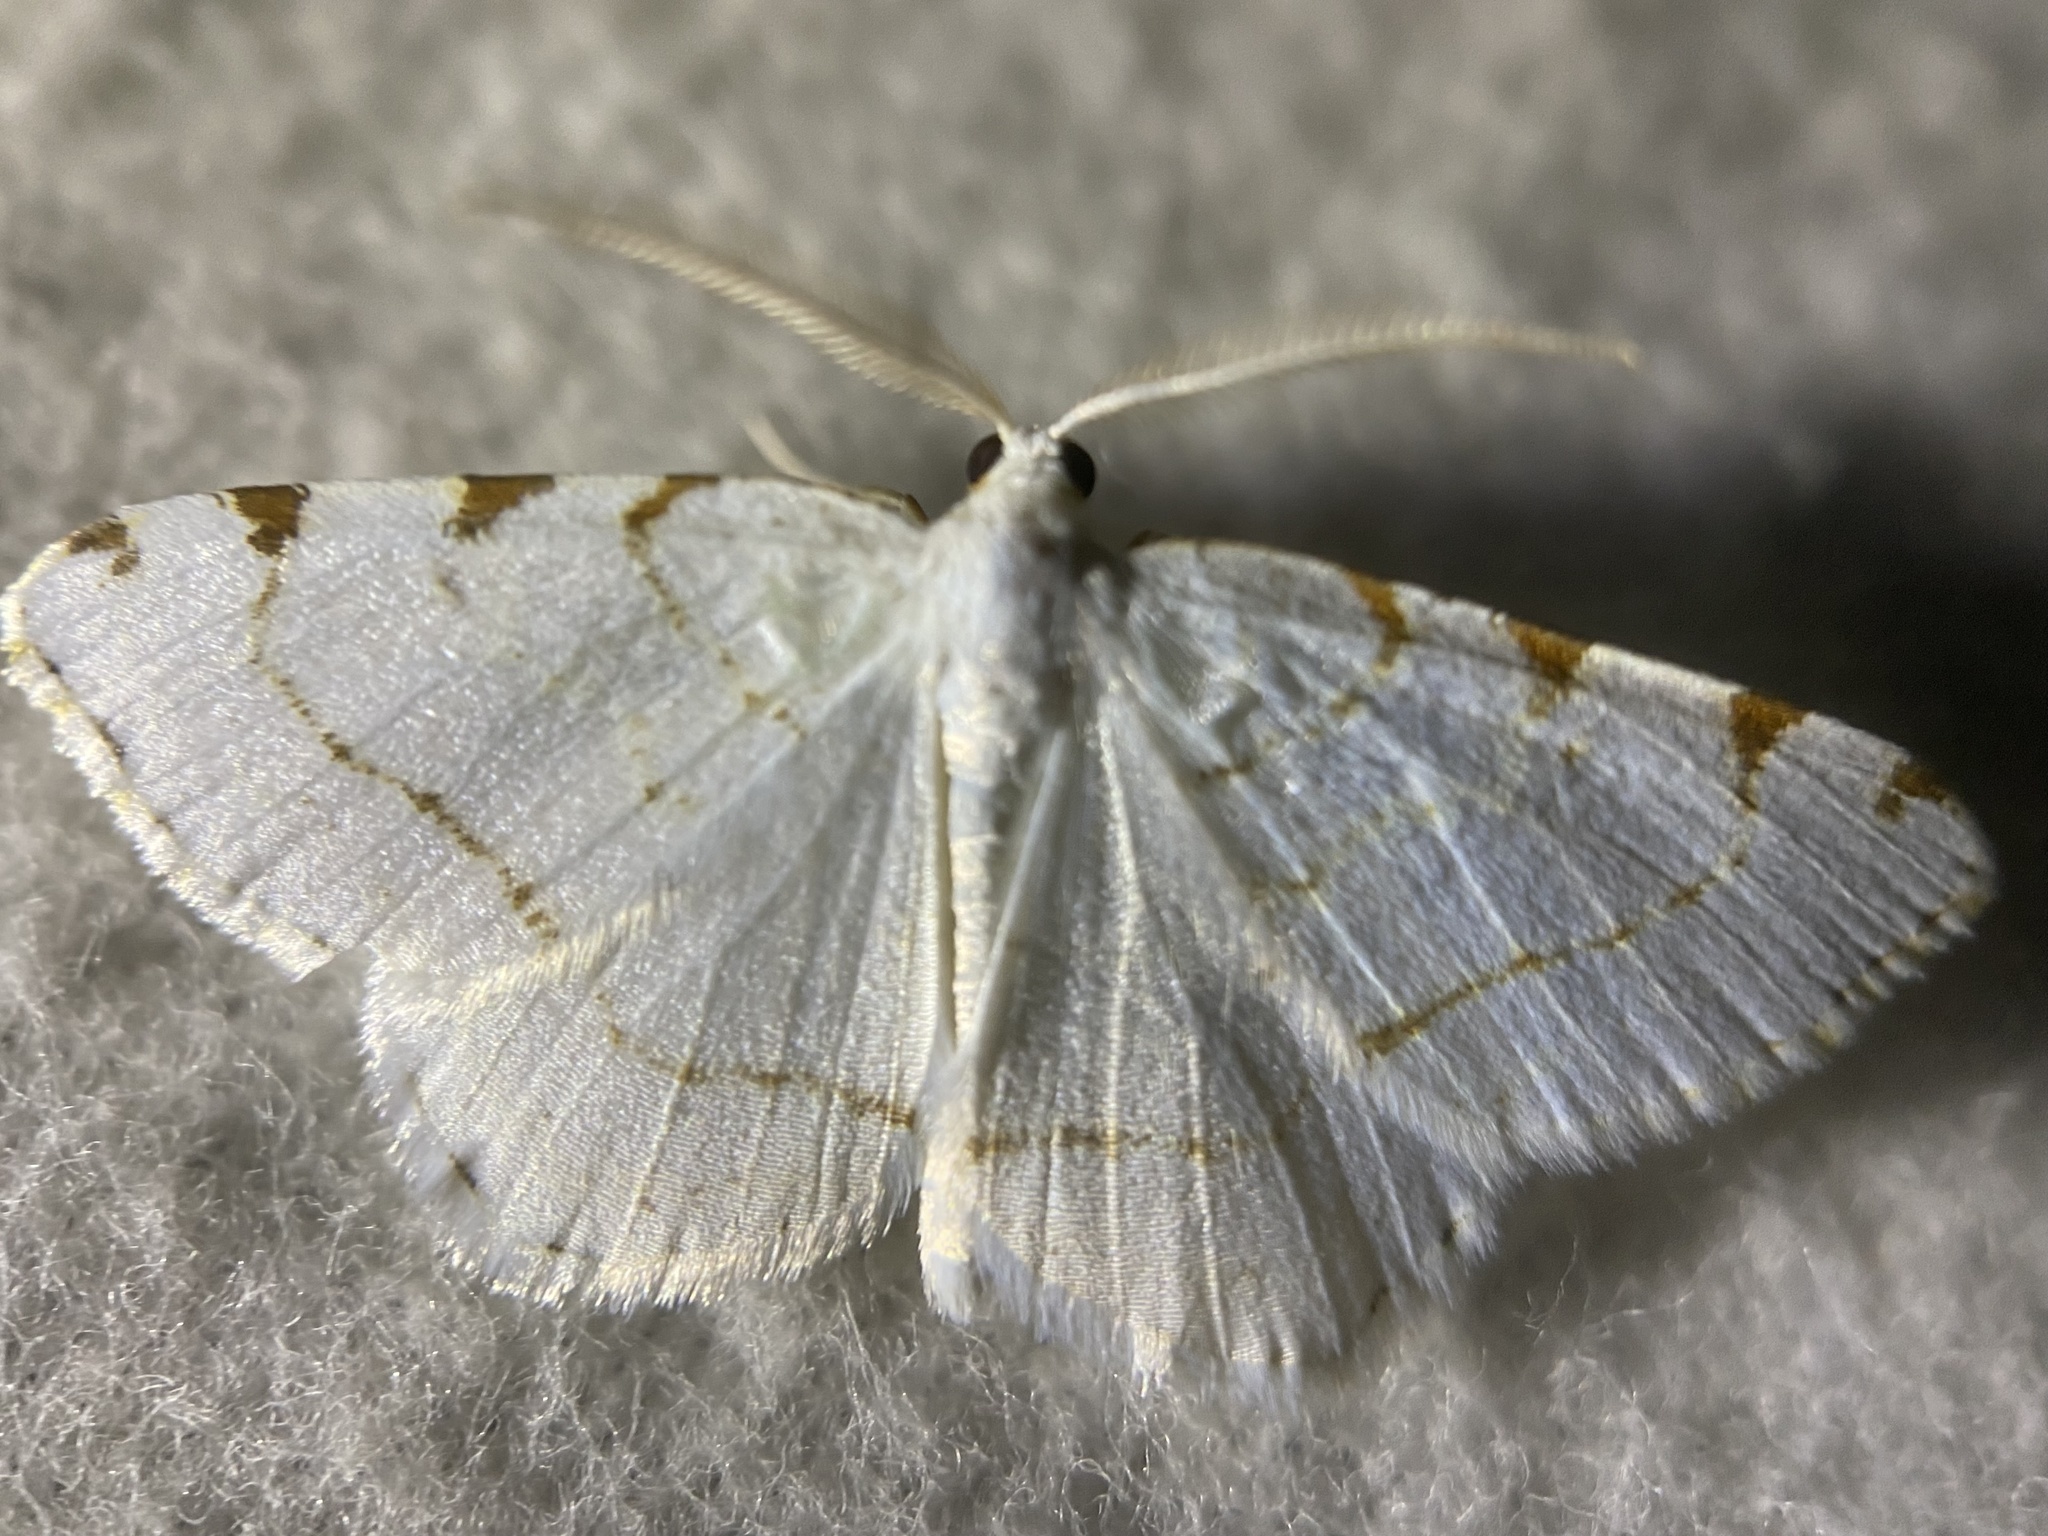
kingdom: Animalia
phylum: Arthropoda
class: Insecta
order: Lepidoptera
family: Geometridae
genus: Macaria
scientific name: Macaria pustularia
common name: Lesser maple spanworm moth
